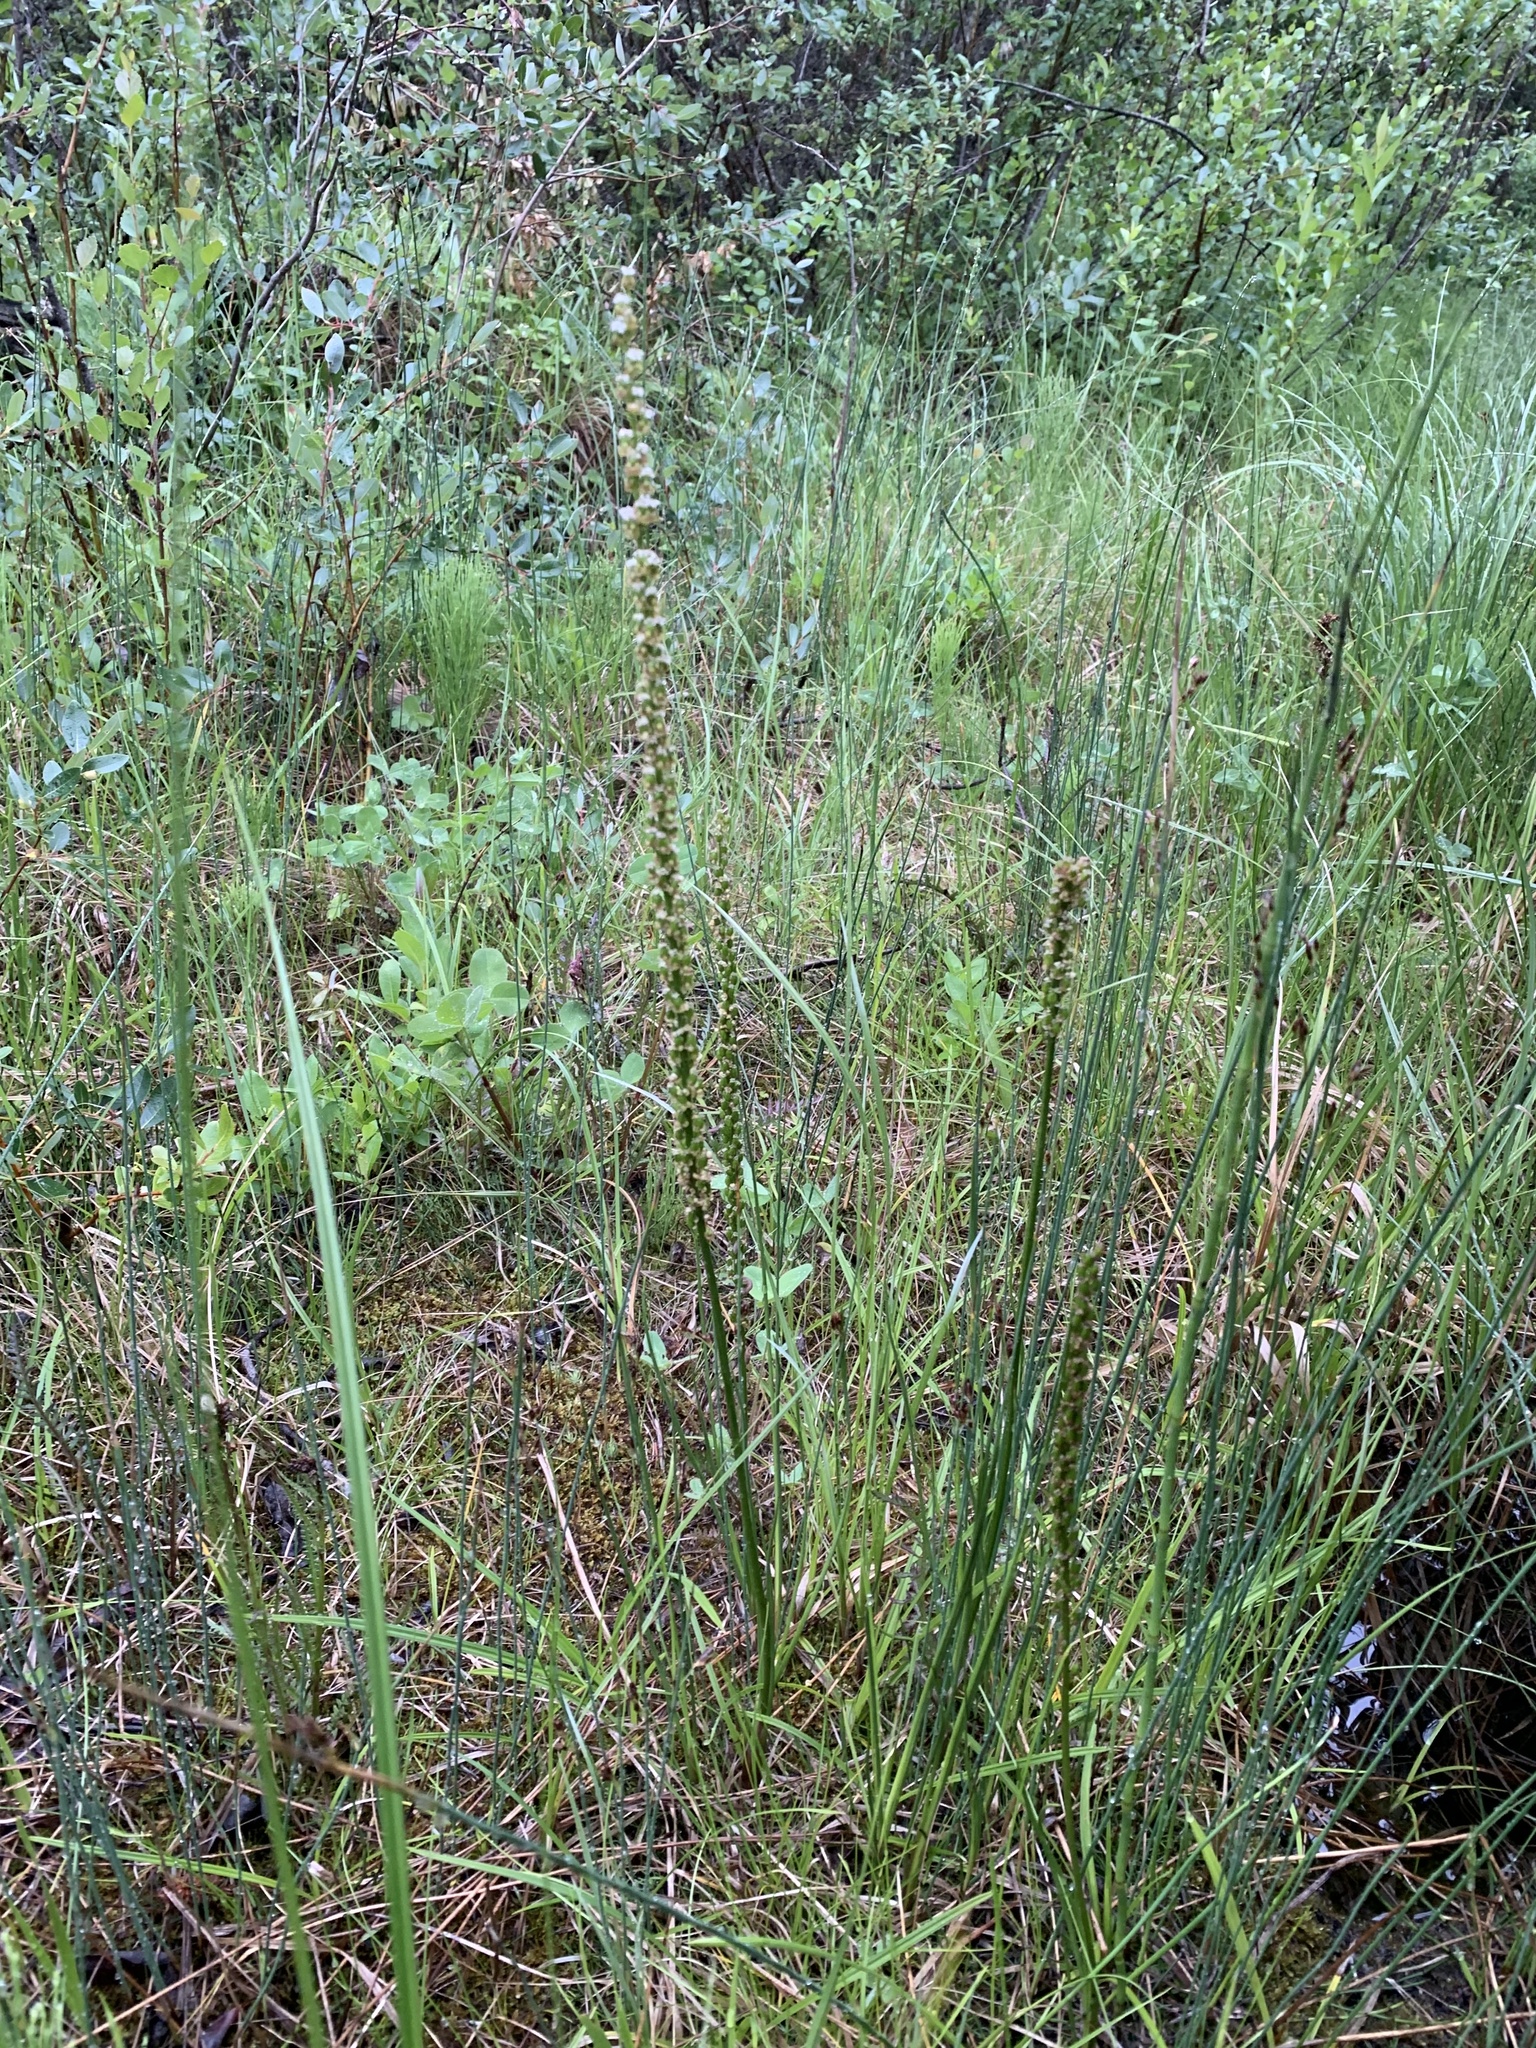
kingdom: Plantae
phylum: Tracheophyta
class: Liliopsida
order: Alismatales
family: Juncaginaceae
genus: Triglochin
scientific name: Triglochin maritima
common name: Sea arrowgrass
